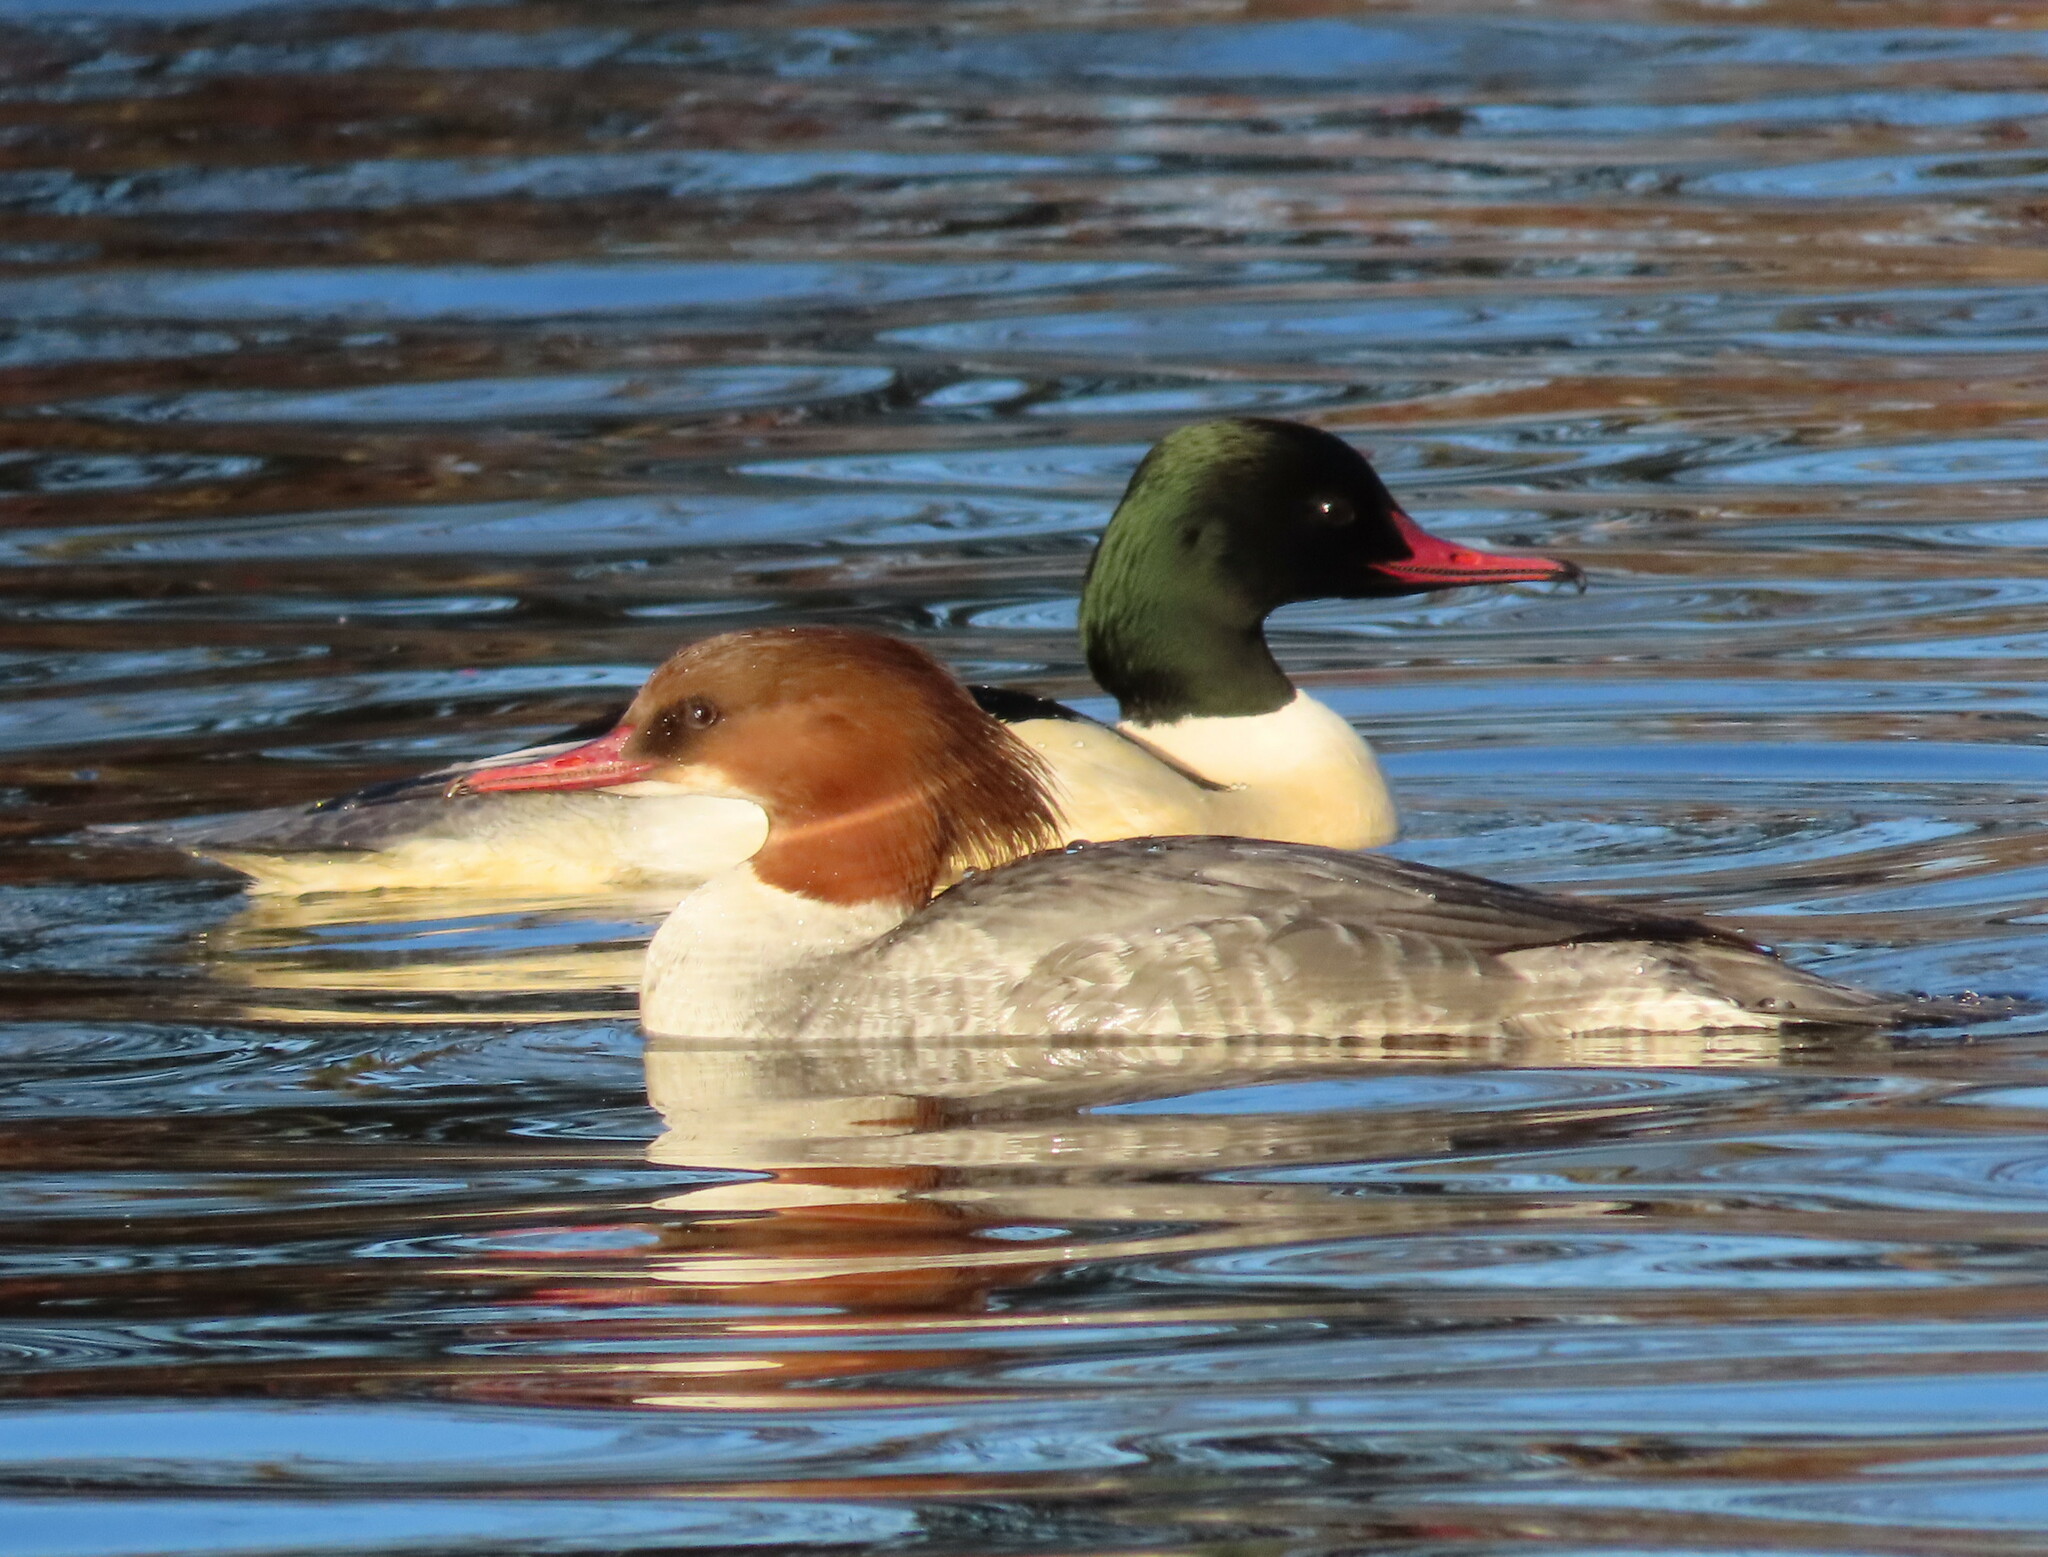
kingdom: Animalia
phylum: Chordata
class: Aves
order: Anseriformes
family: Anatidae
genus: Mergus
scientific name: Mergus merganser
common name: Common merganser
